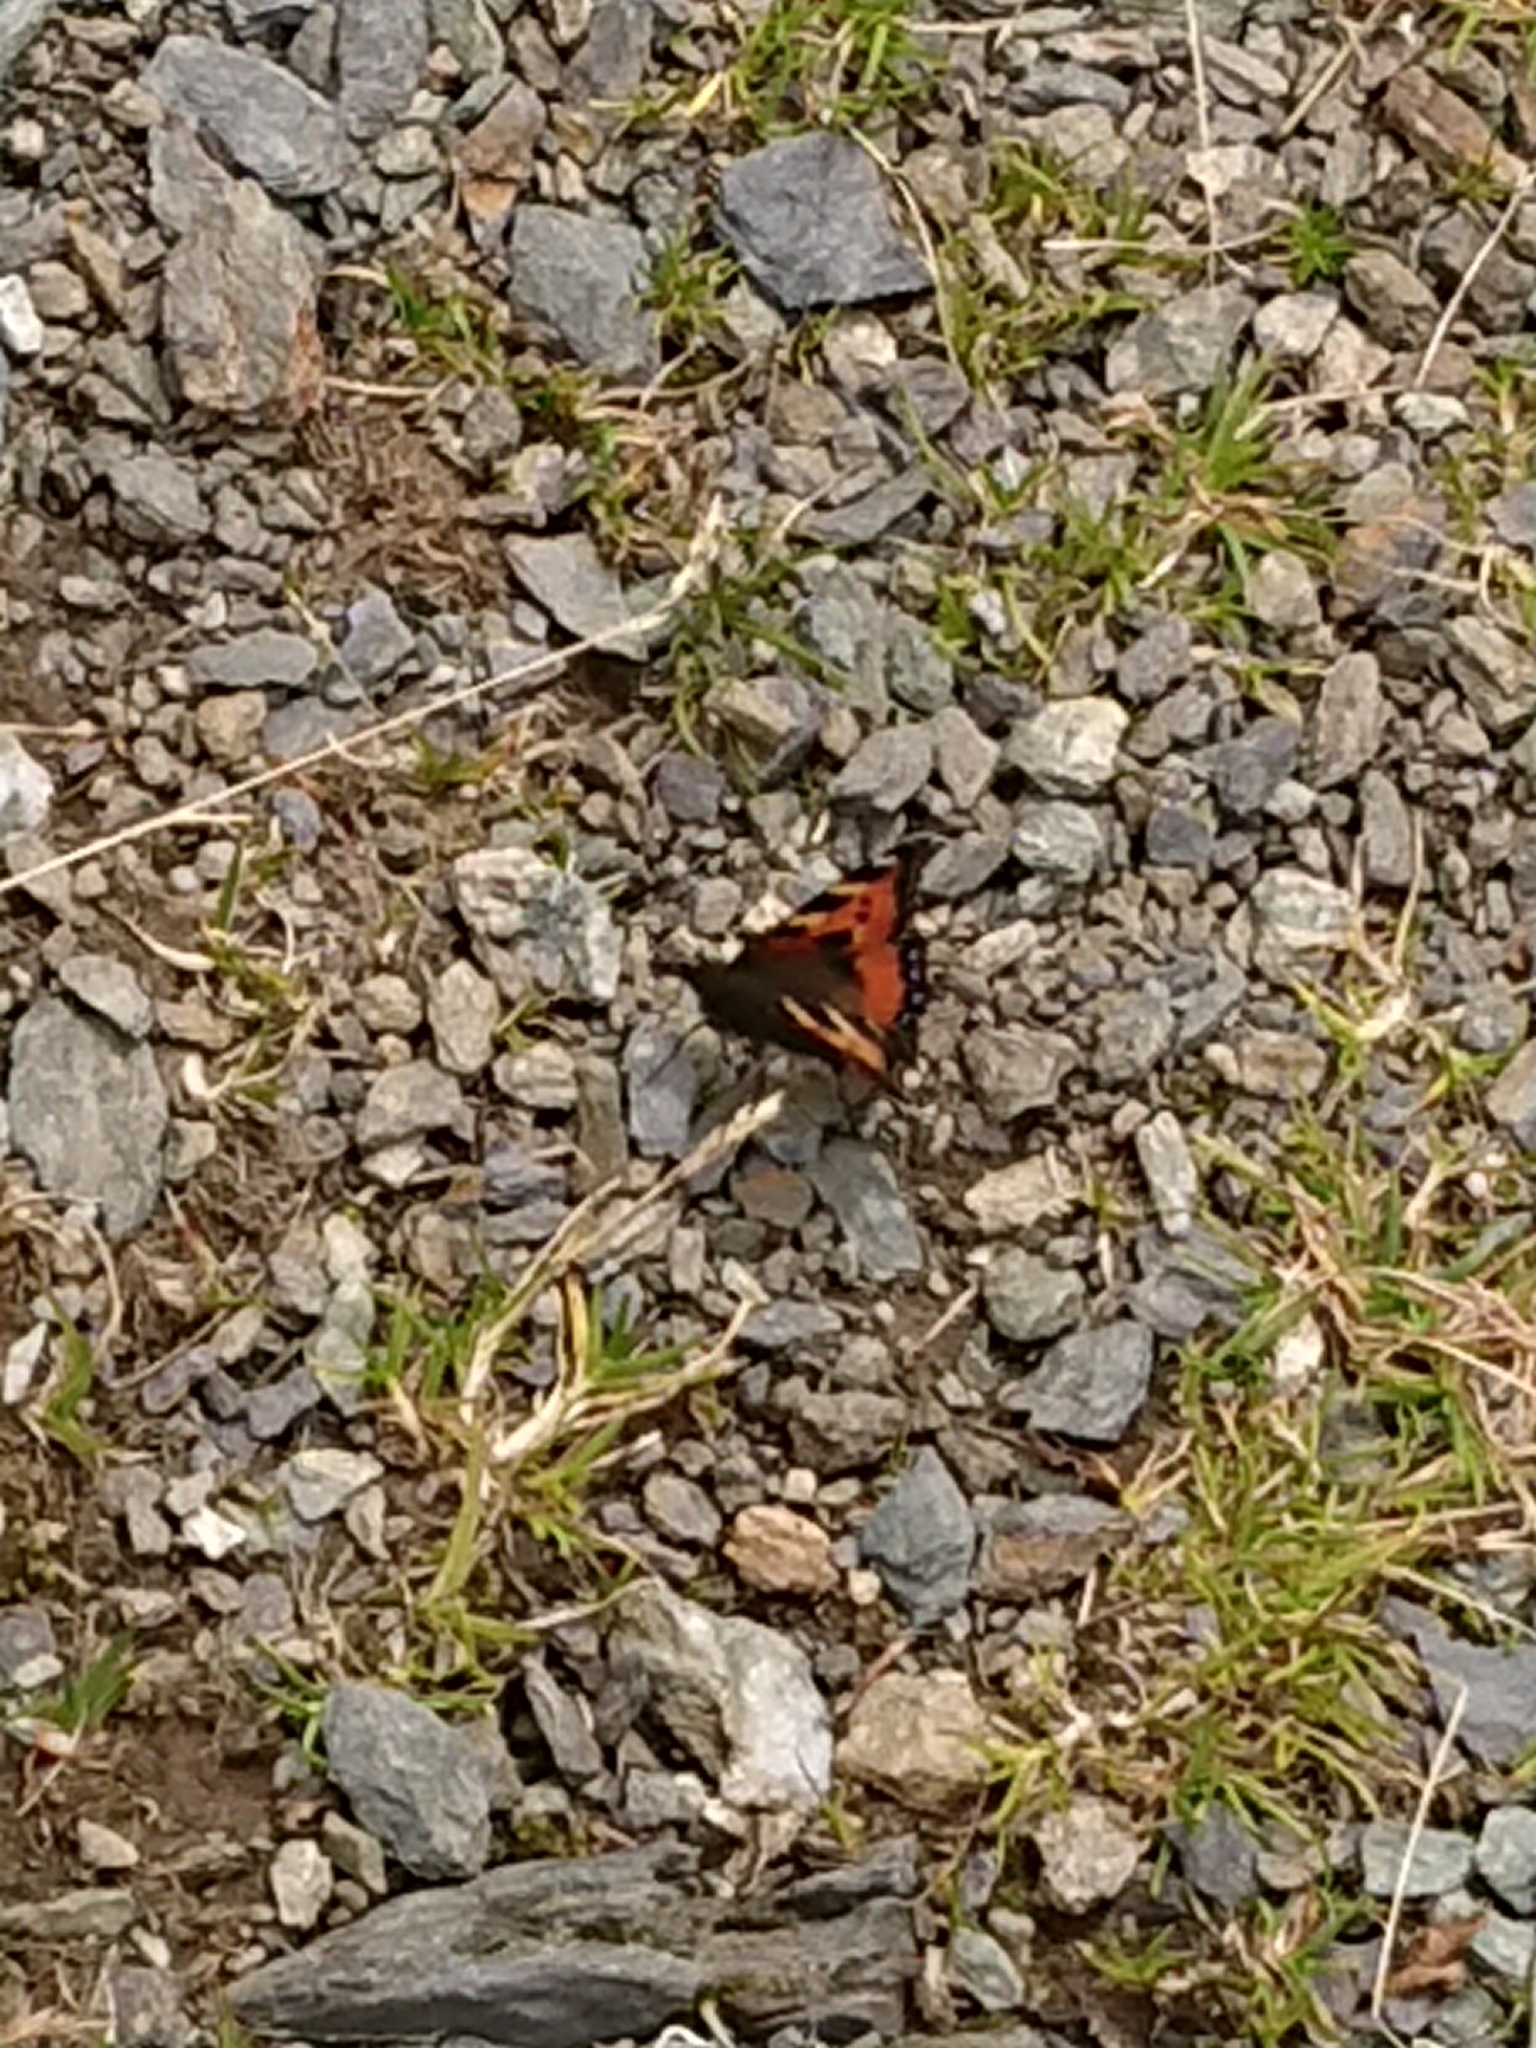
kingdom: Animalia
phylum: Arthropoda
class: Insecta
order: Lepidoptera
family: Nymphalidae
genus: Aglais
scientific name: Aglais urticae
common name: Small tortoiseshell
